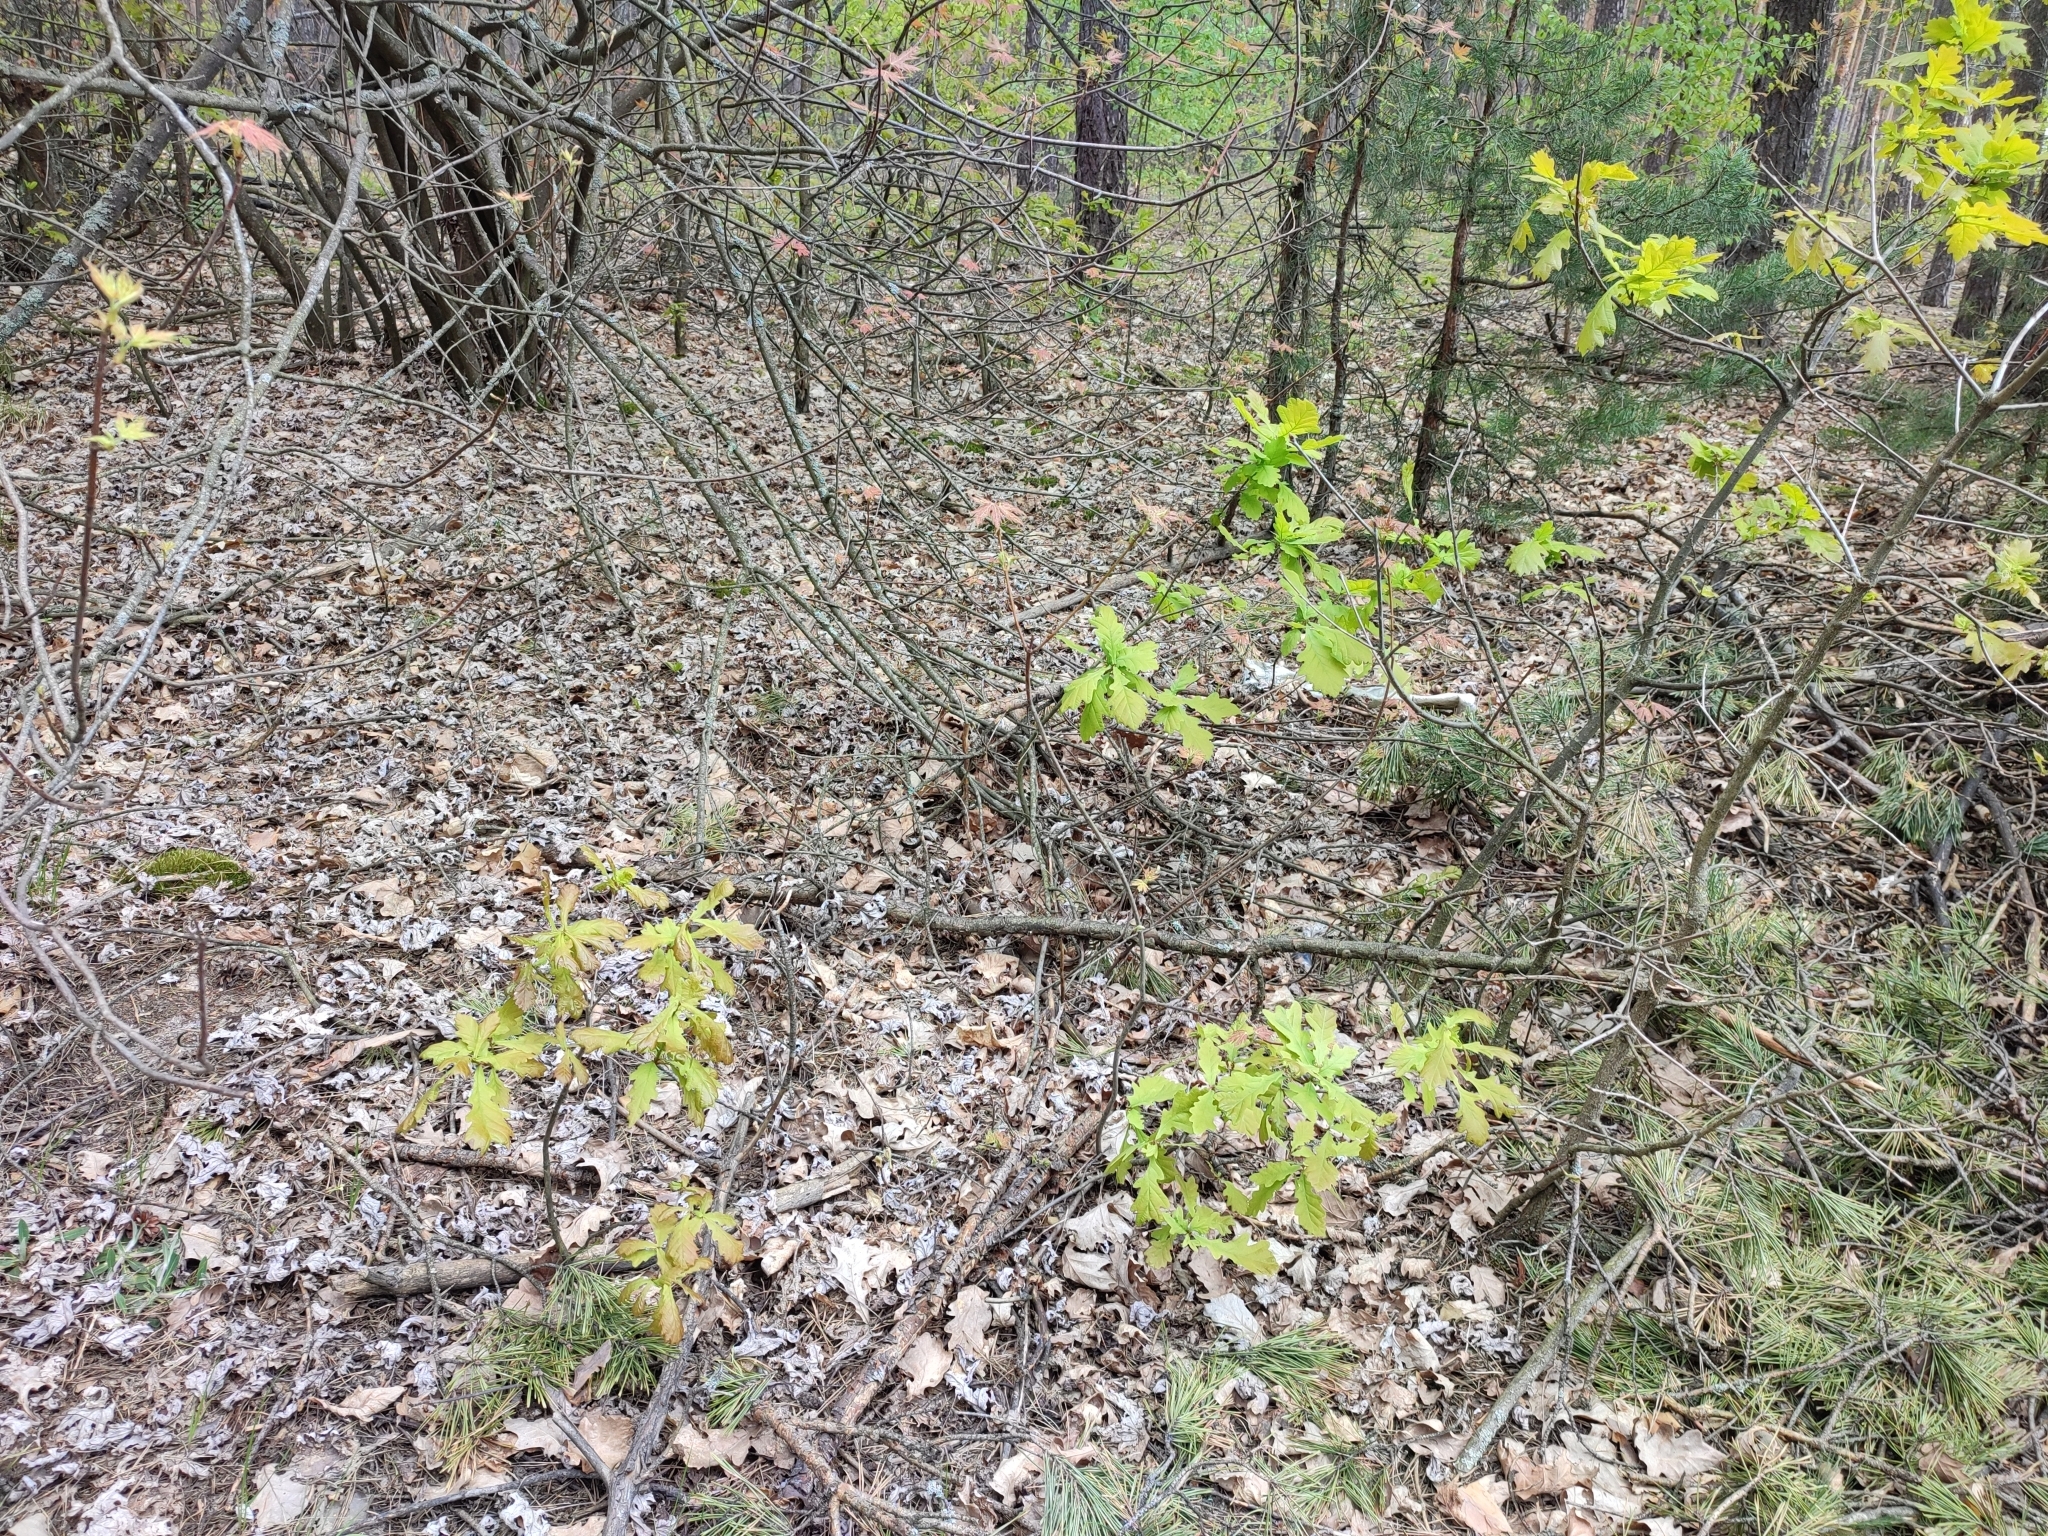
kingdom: Plantae
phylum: Tracheophyta
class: Magnoliopsida
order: Fagales
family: Fagaceae
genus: Quercus
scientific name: Quercus robur
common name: Pedunculate oak
